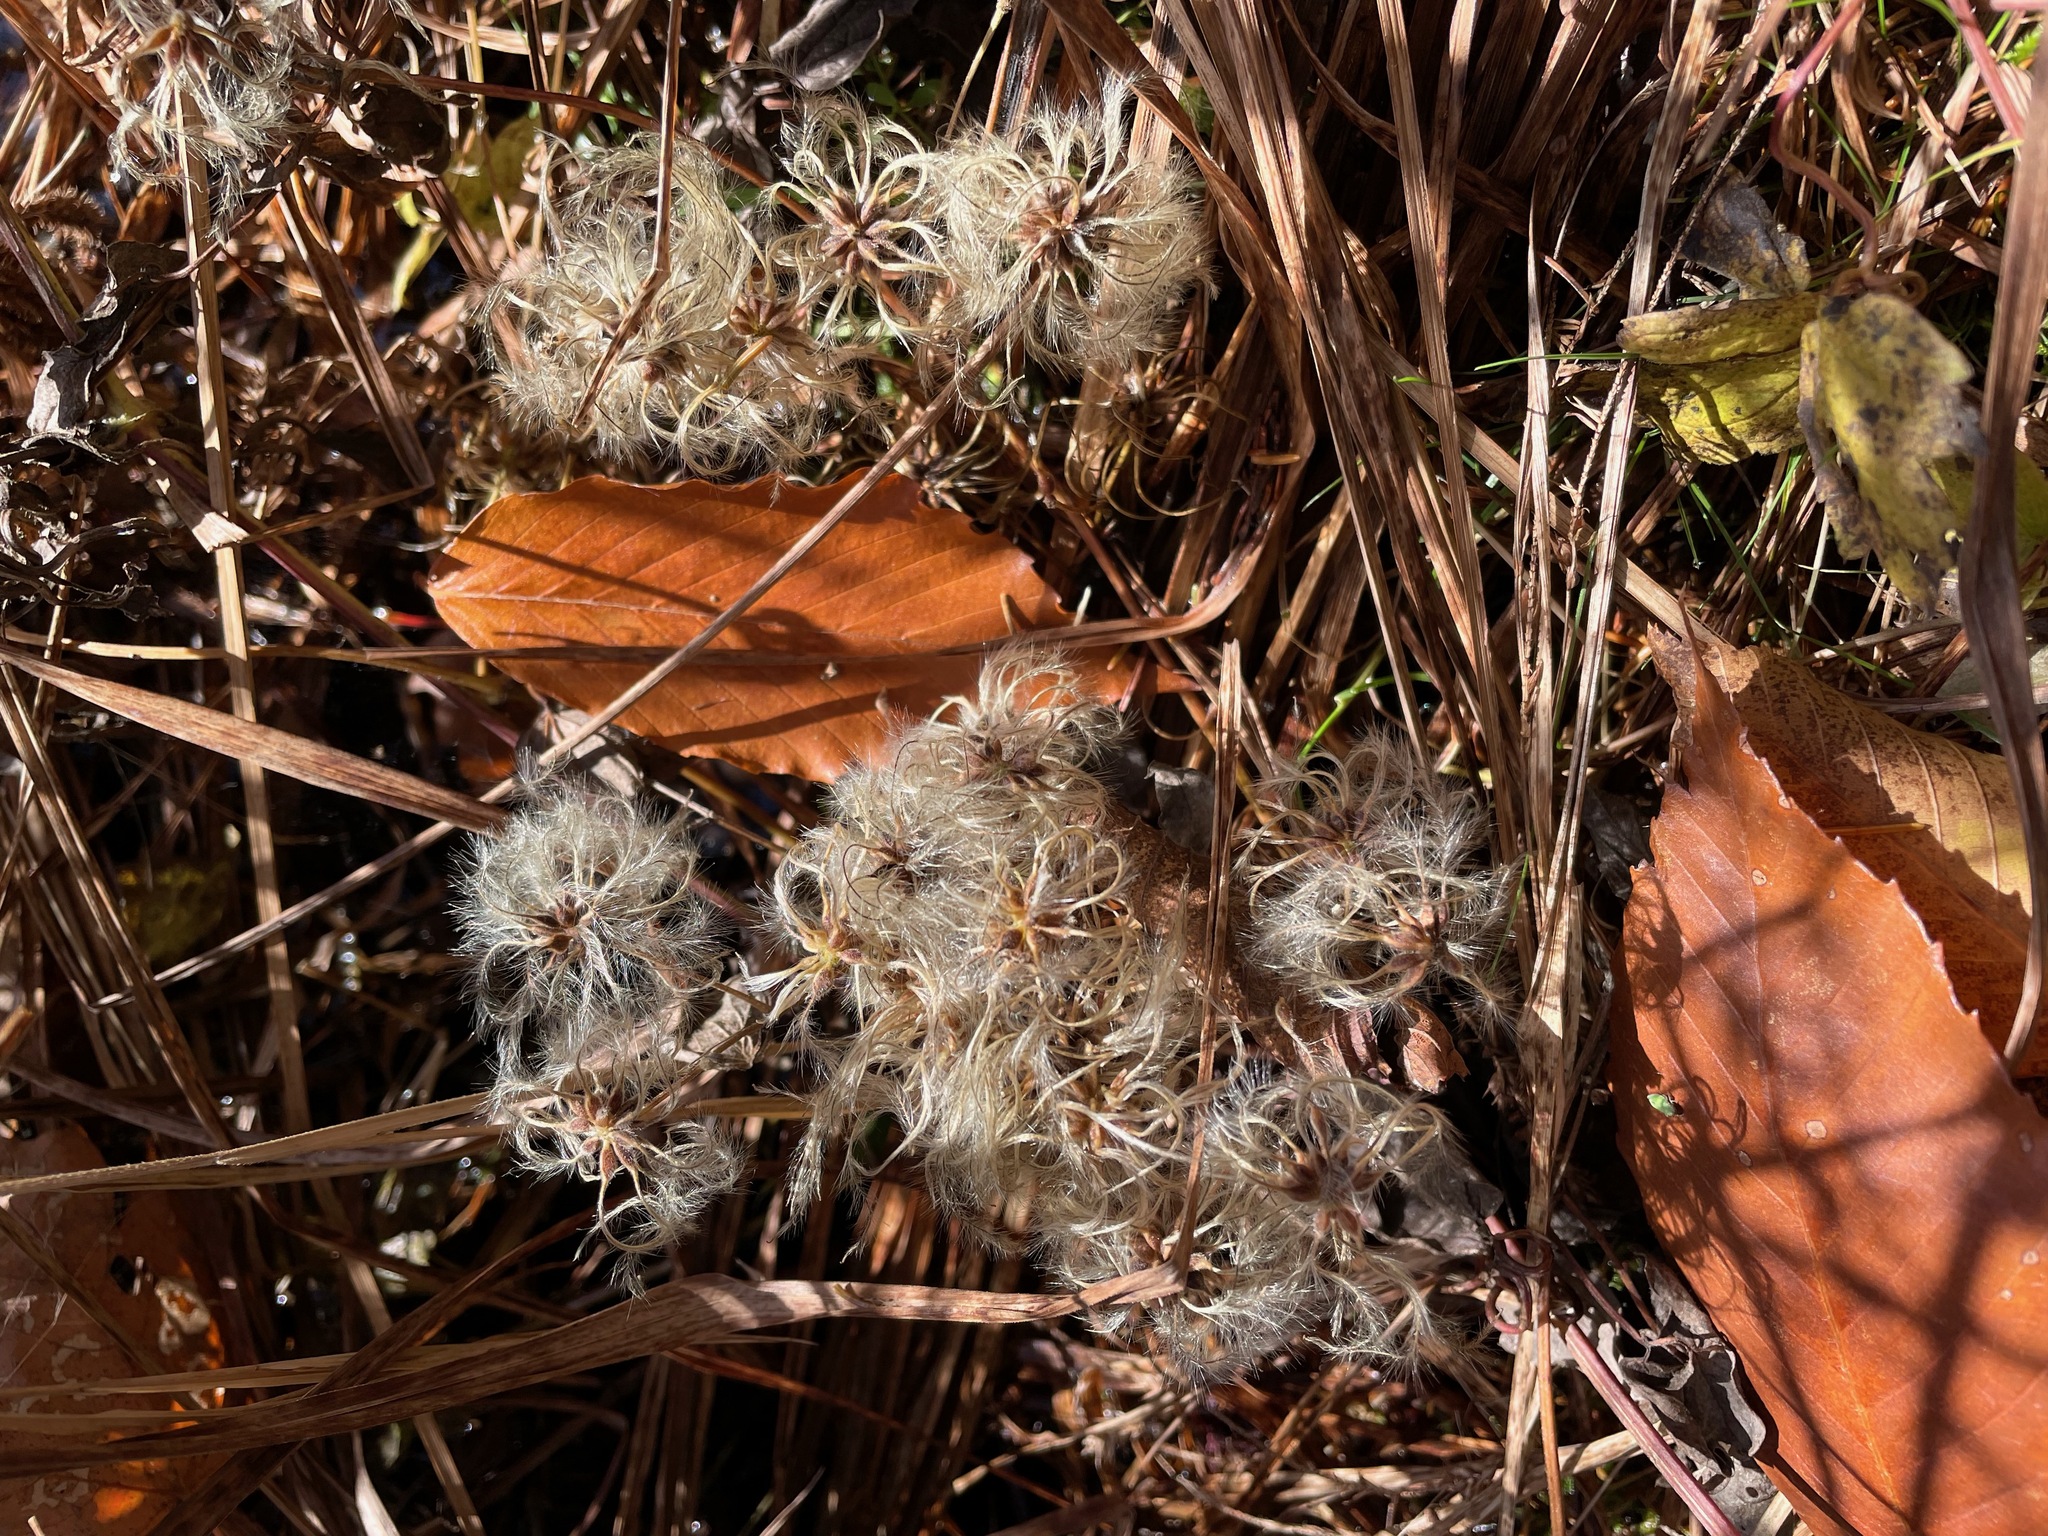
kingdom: Plantae
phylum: Tracheophyta
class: Magnoliopsida
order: Ranunculales
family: Ranunculaceae
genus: Clematis
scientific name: Clematis virginiana
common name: Virgin's-bower
